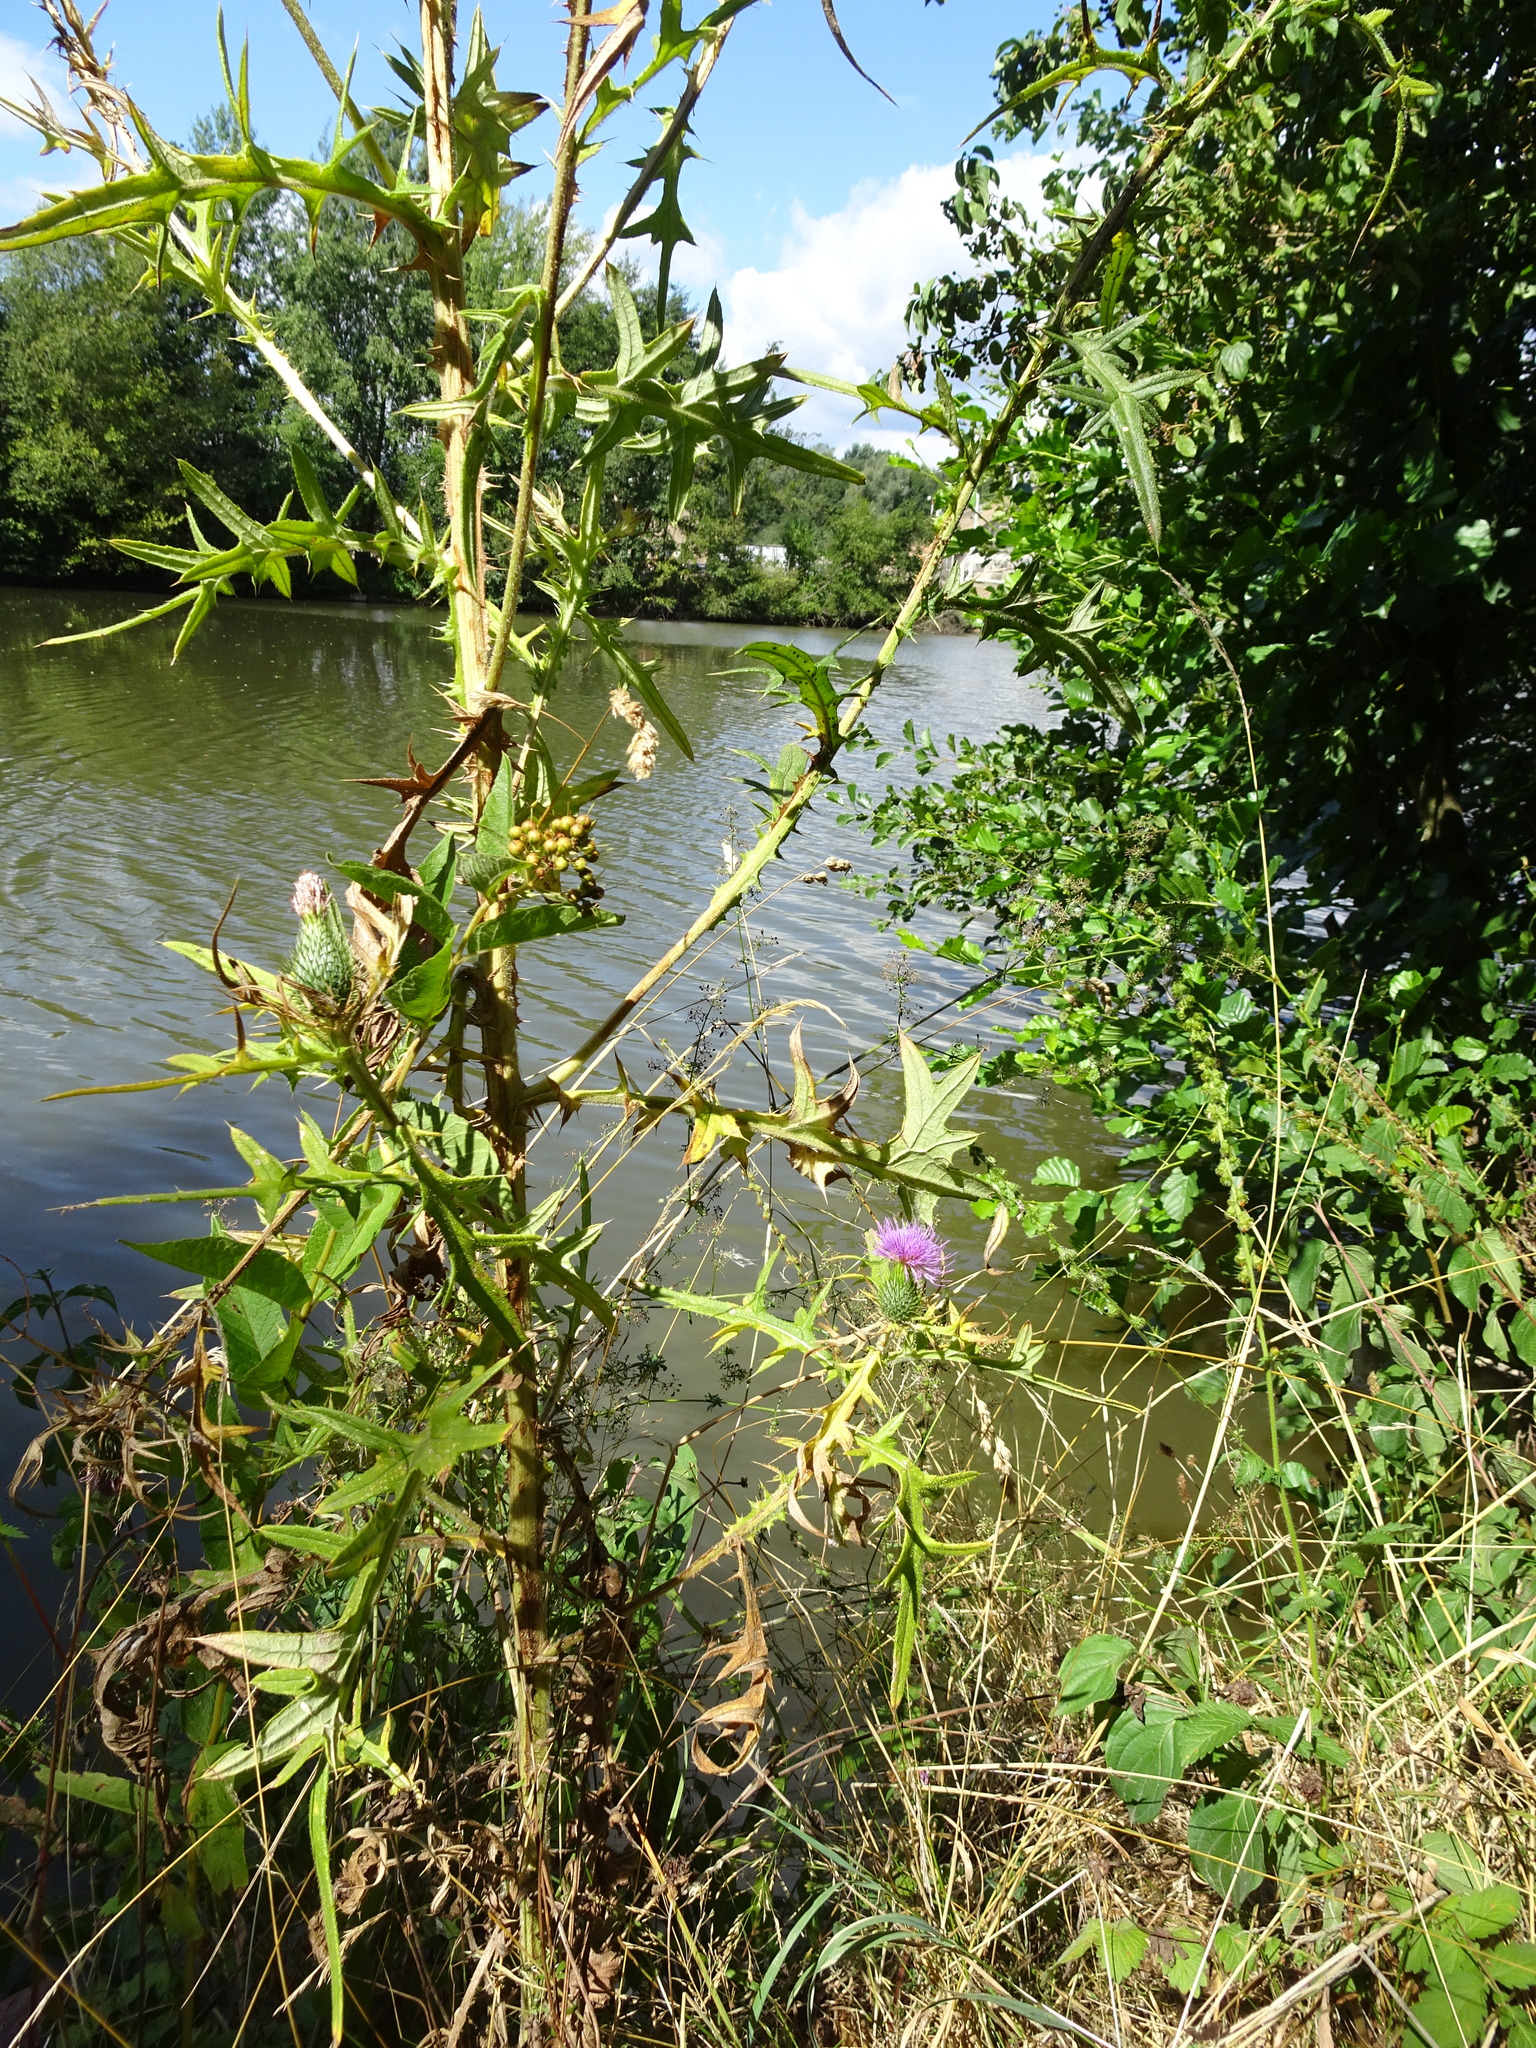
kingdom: Plantae
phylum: Tracheophyta
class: Magnoliopsida
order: Asterales
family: Asteraceae
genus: Cirsium
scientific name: Cirsium vulgare
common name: Bull thistle
